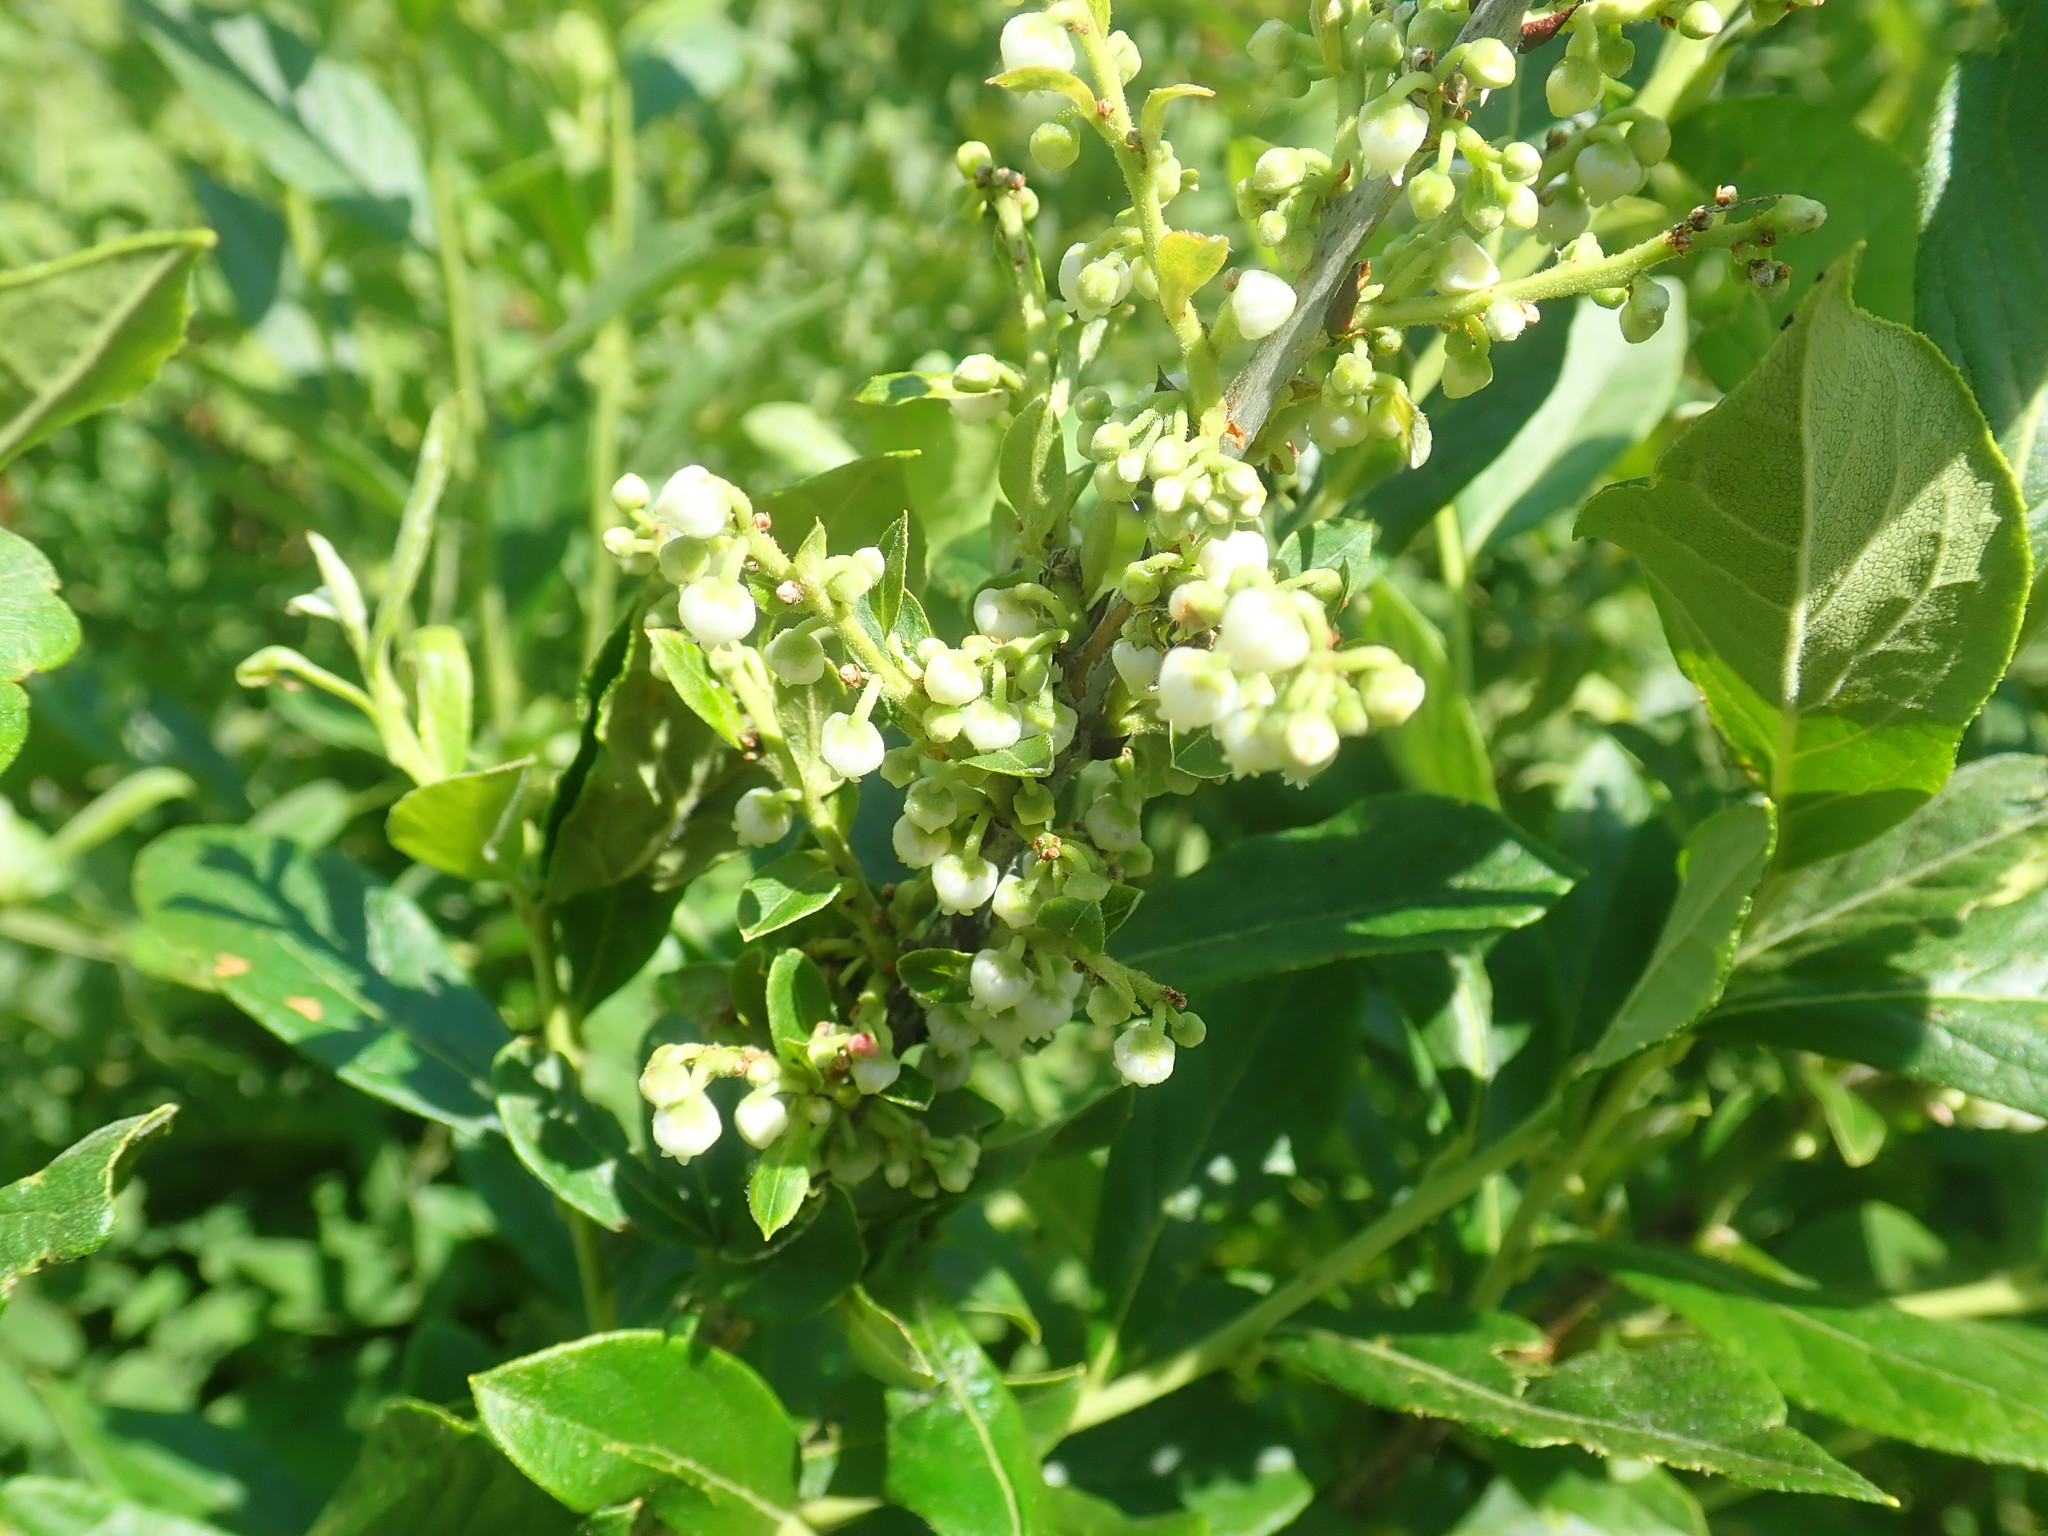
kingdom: Plantae
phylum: Tracheophyta
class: Magnoliopsida
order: Ericales
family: Ericaceae
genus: Lyonia
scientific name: Lyonia ligustrina
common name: Maleberry
